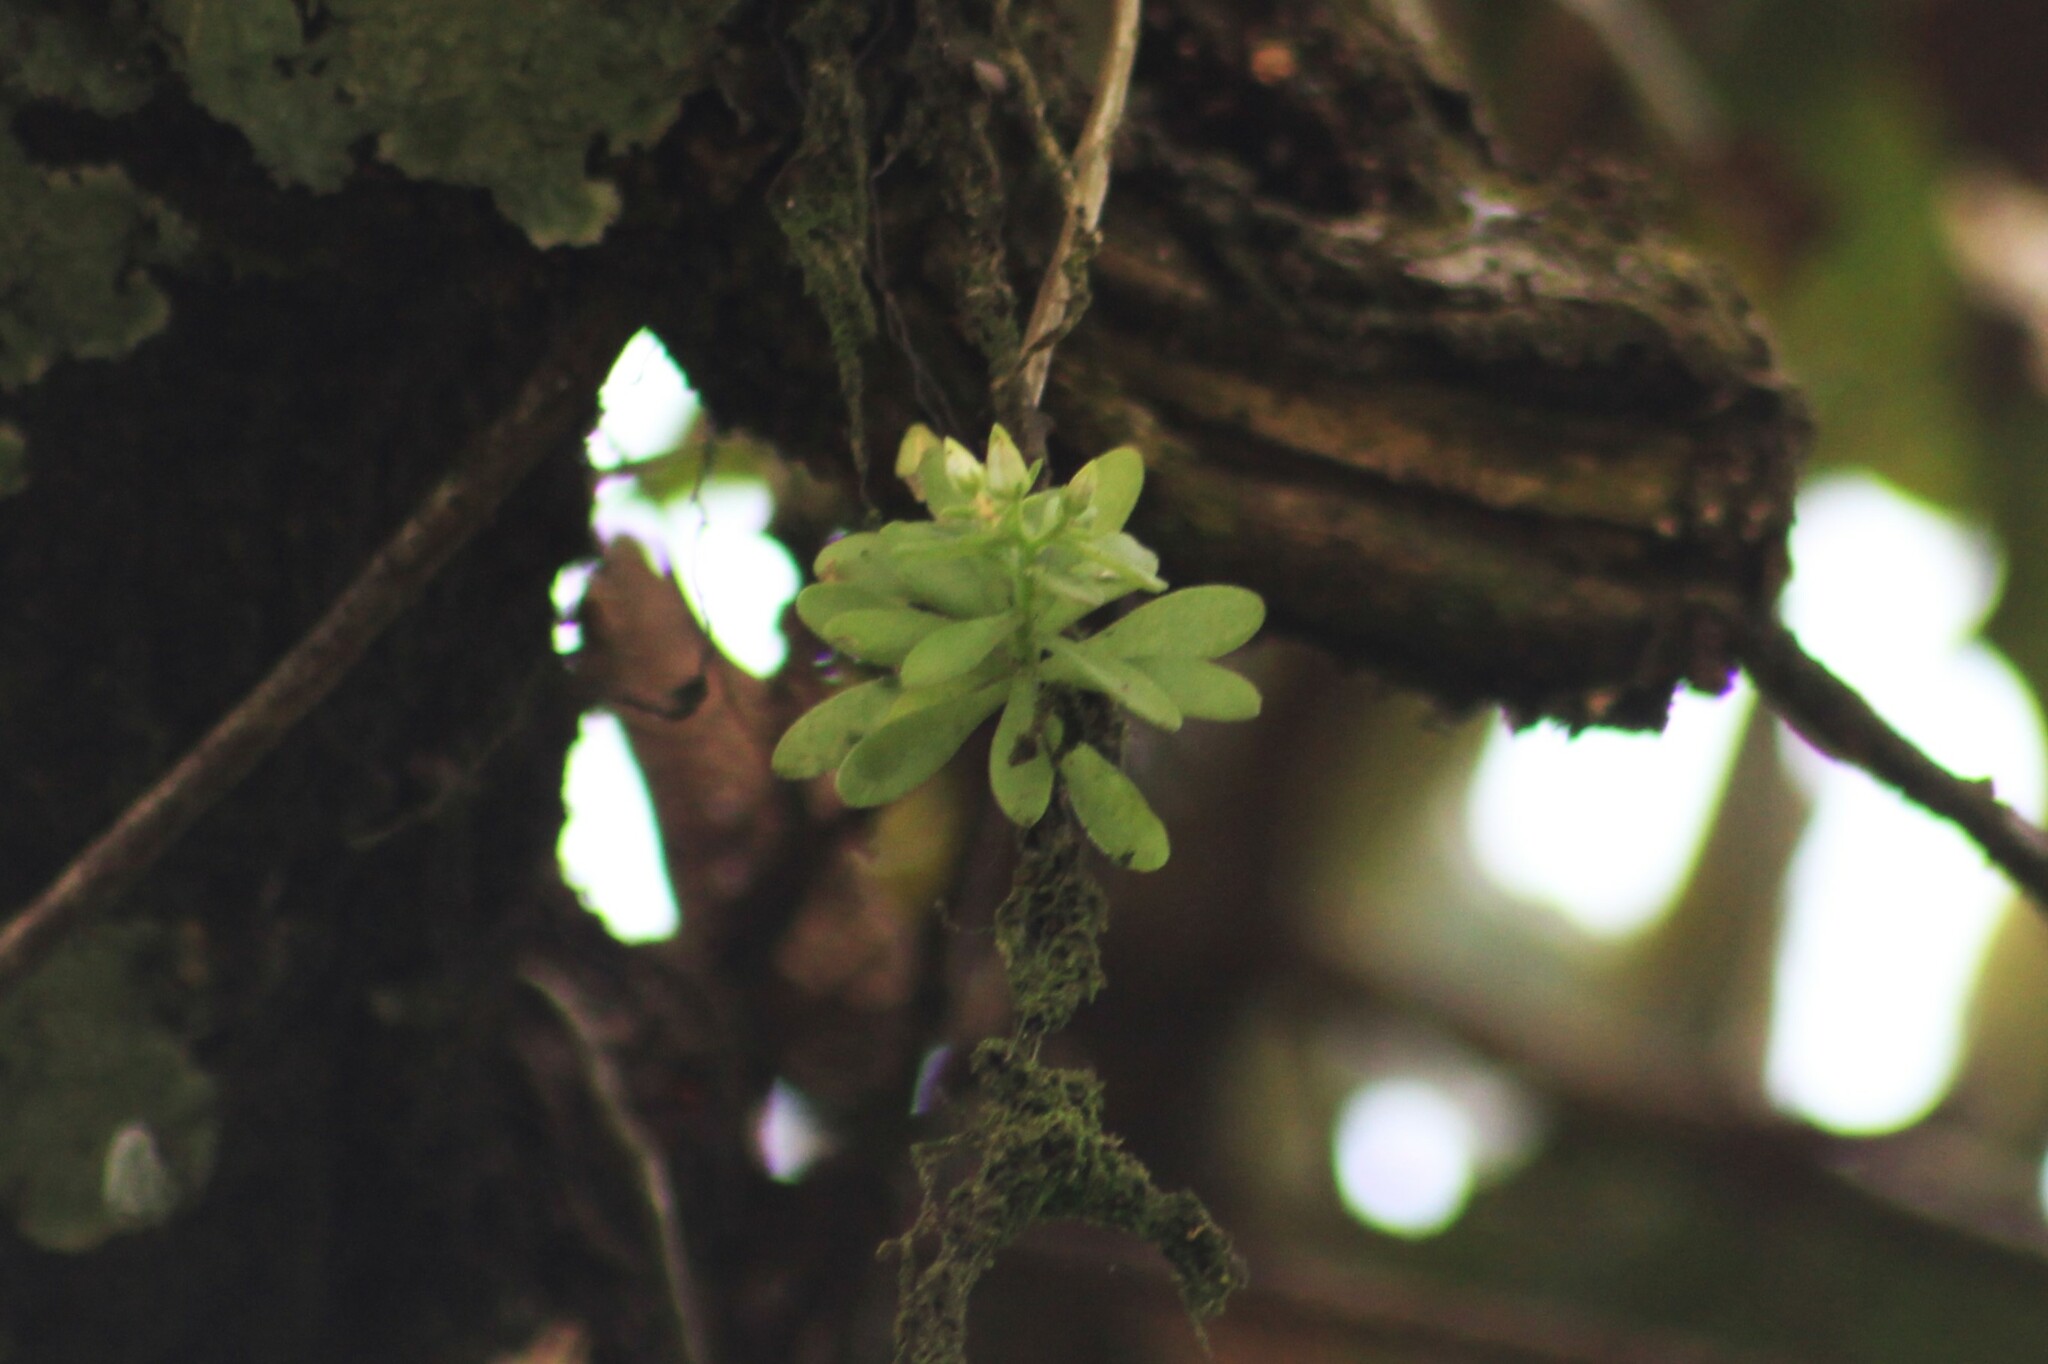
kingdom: Plantae
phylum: Tracheophyta
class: Magnoliopsida
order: Saxifragales
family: Crassulaceae
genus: Sedum
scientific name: Sedum tortuosum
